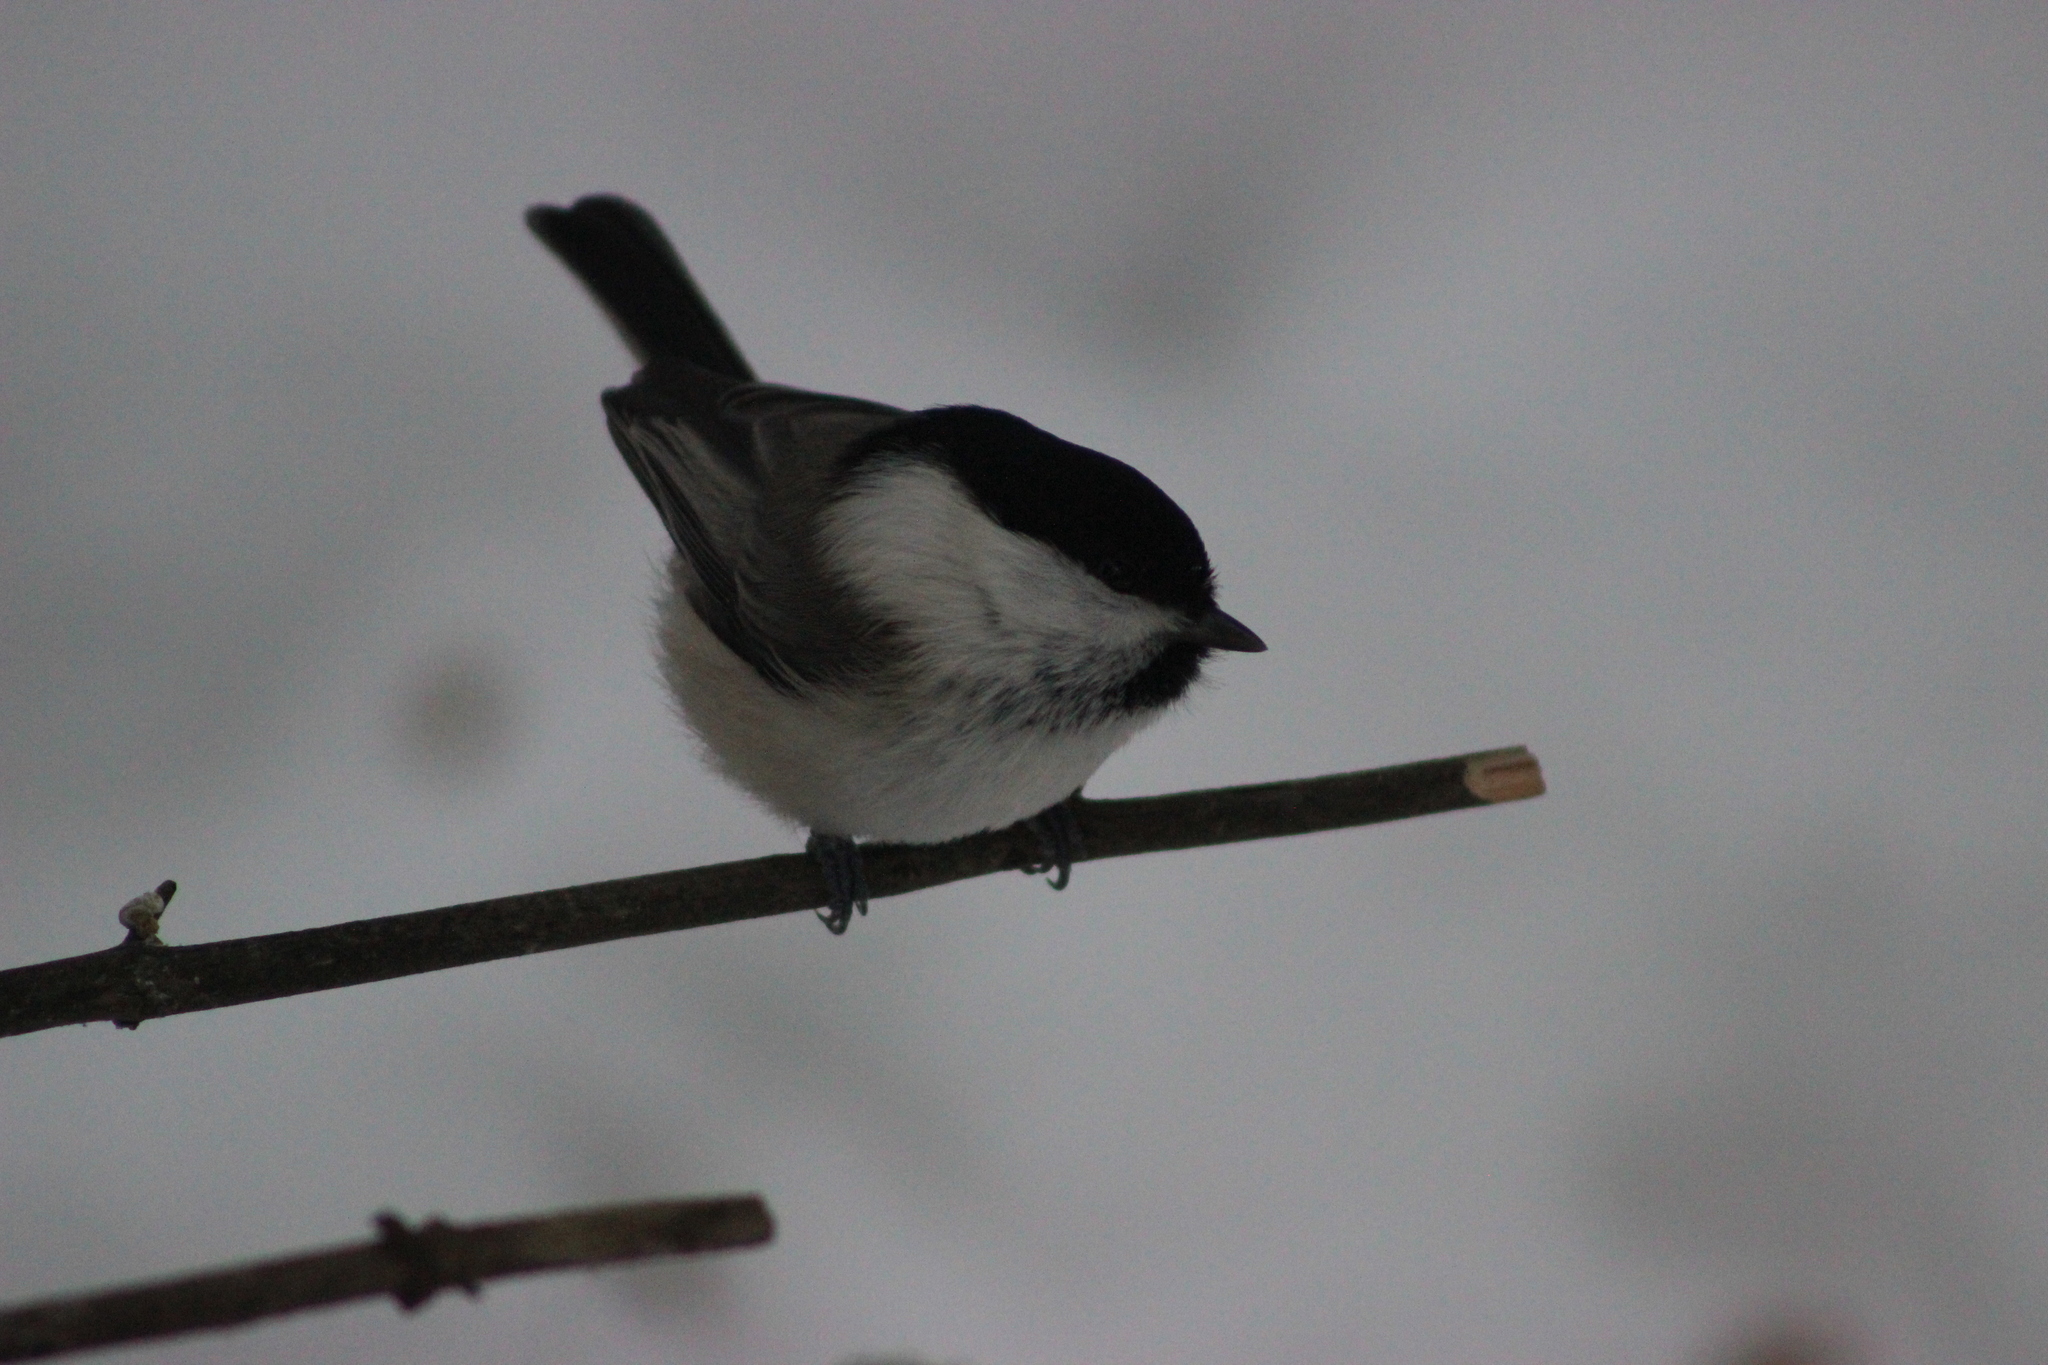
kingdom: Animalia
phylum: Chordata
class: Aves
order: Passeriformes
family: Paridae
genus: Poecile
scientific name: Poecile montanus
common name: Willow tit
